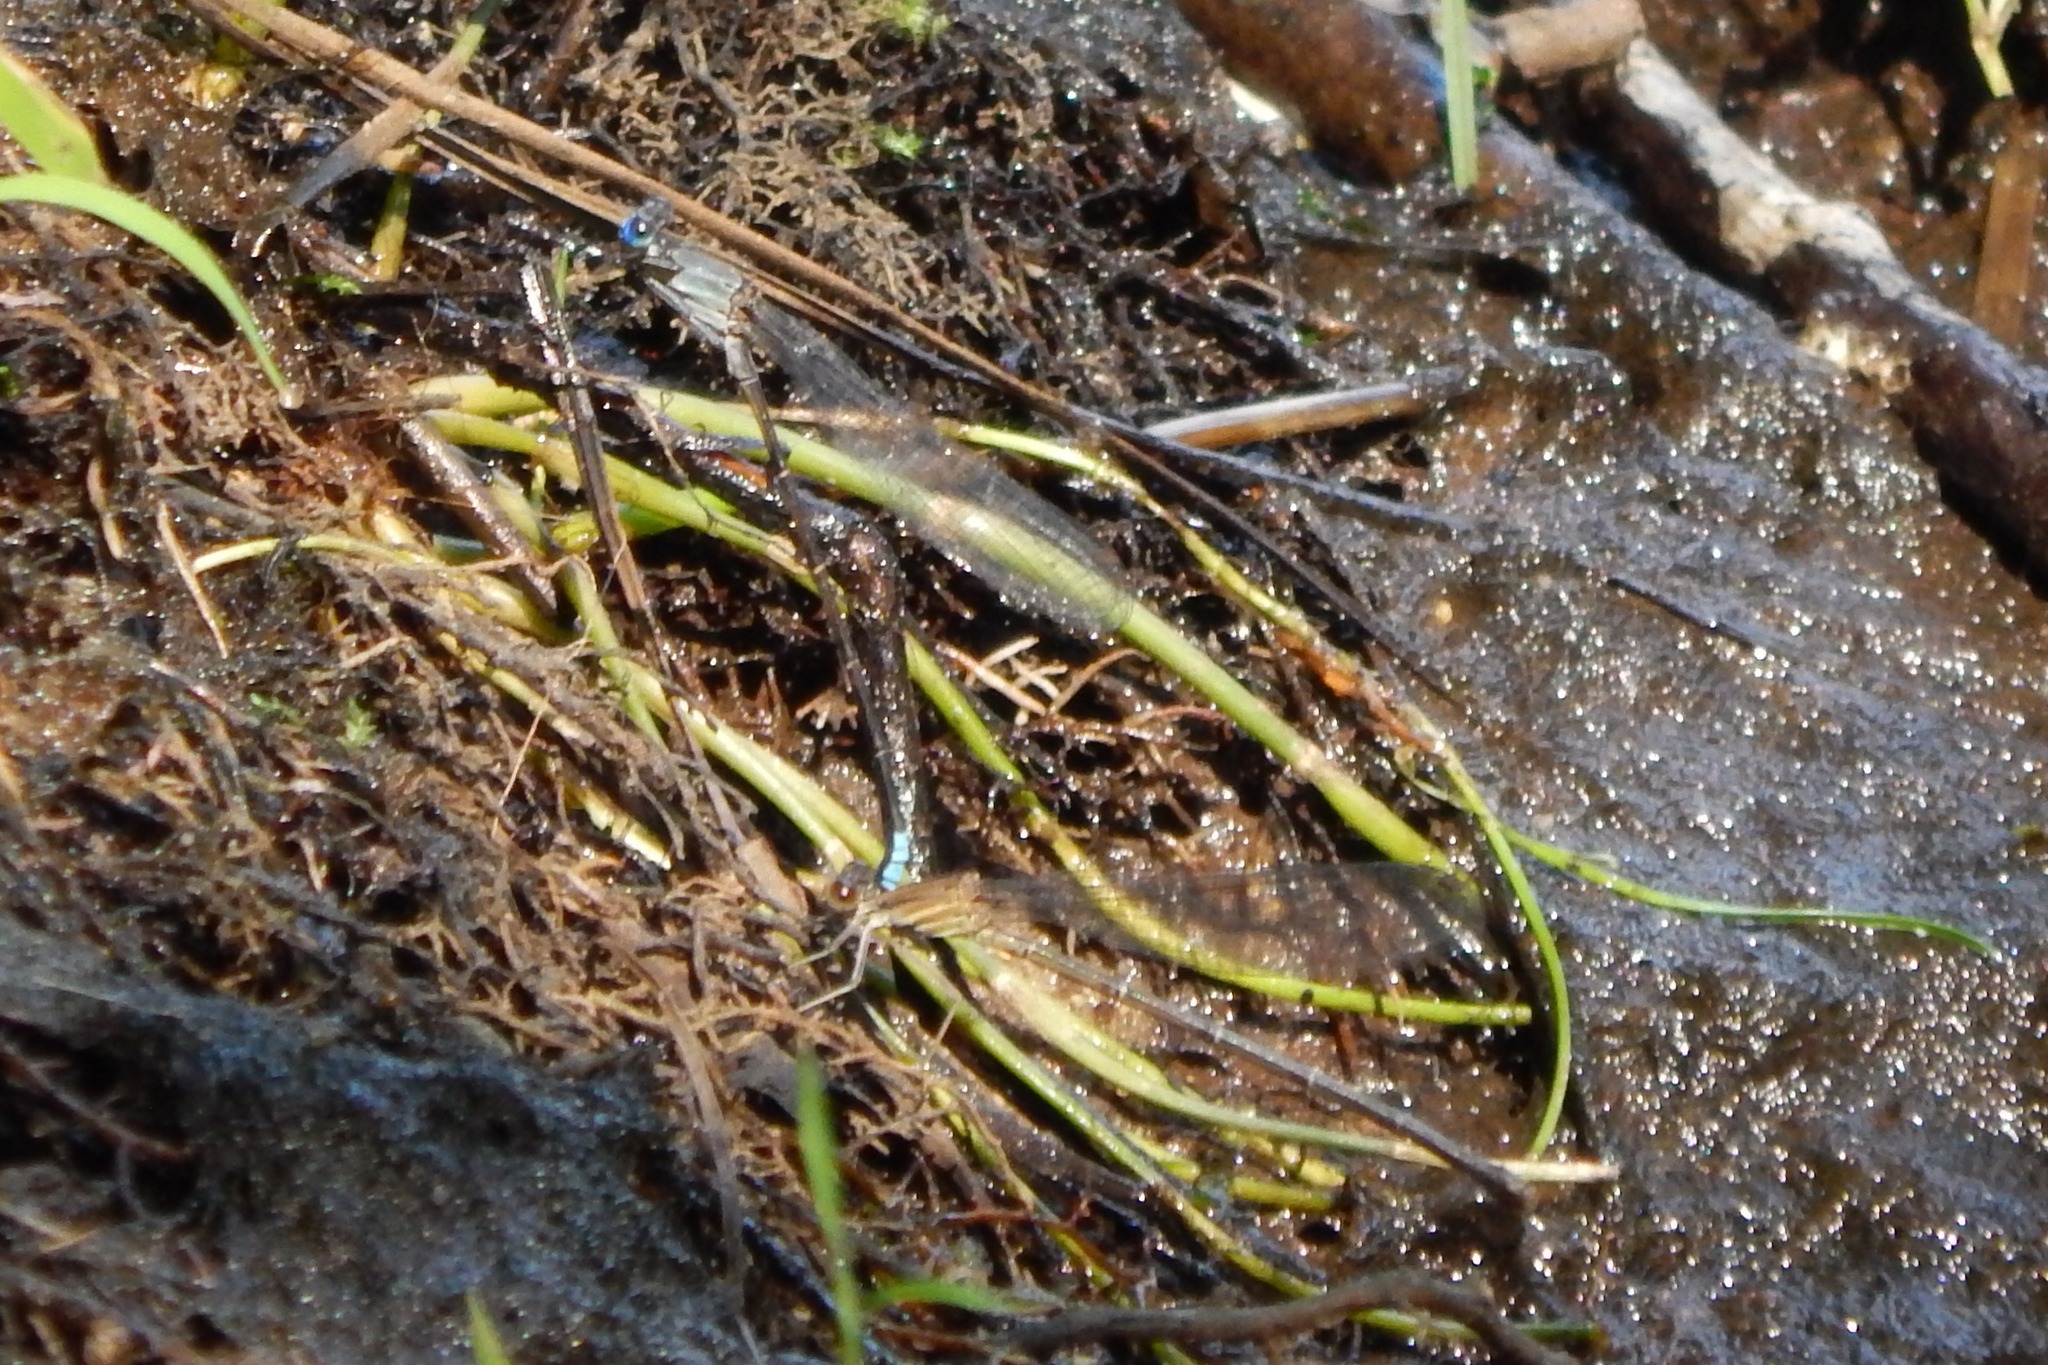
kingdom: Animalia
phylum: Arthropoda
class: Insecta
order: Odonata
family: Coenagrionidae
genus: Argia
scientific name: Argia apicalis
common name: Blue-fronted dancer
